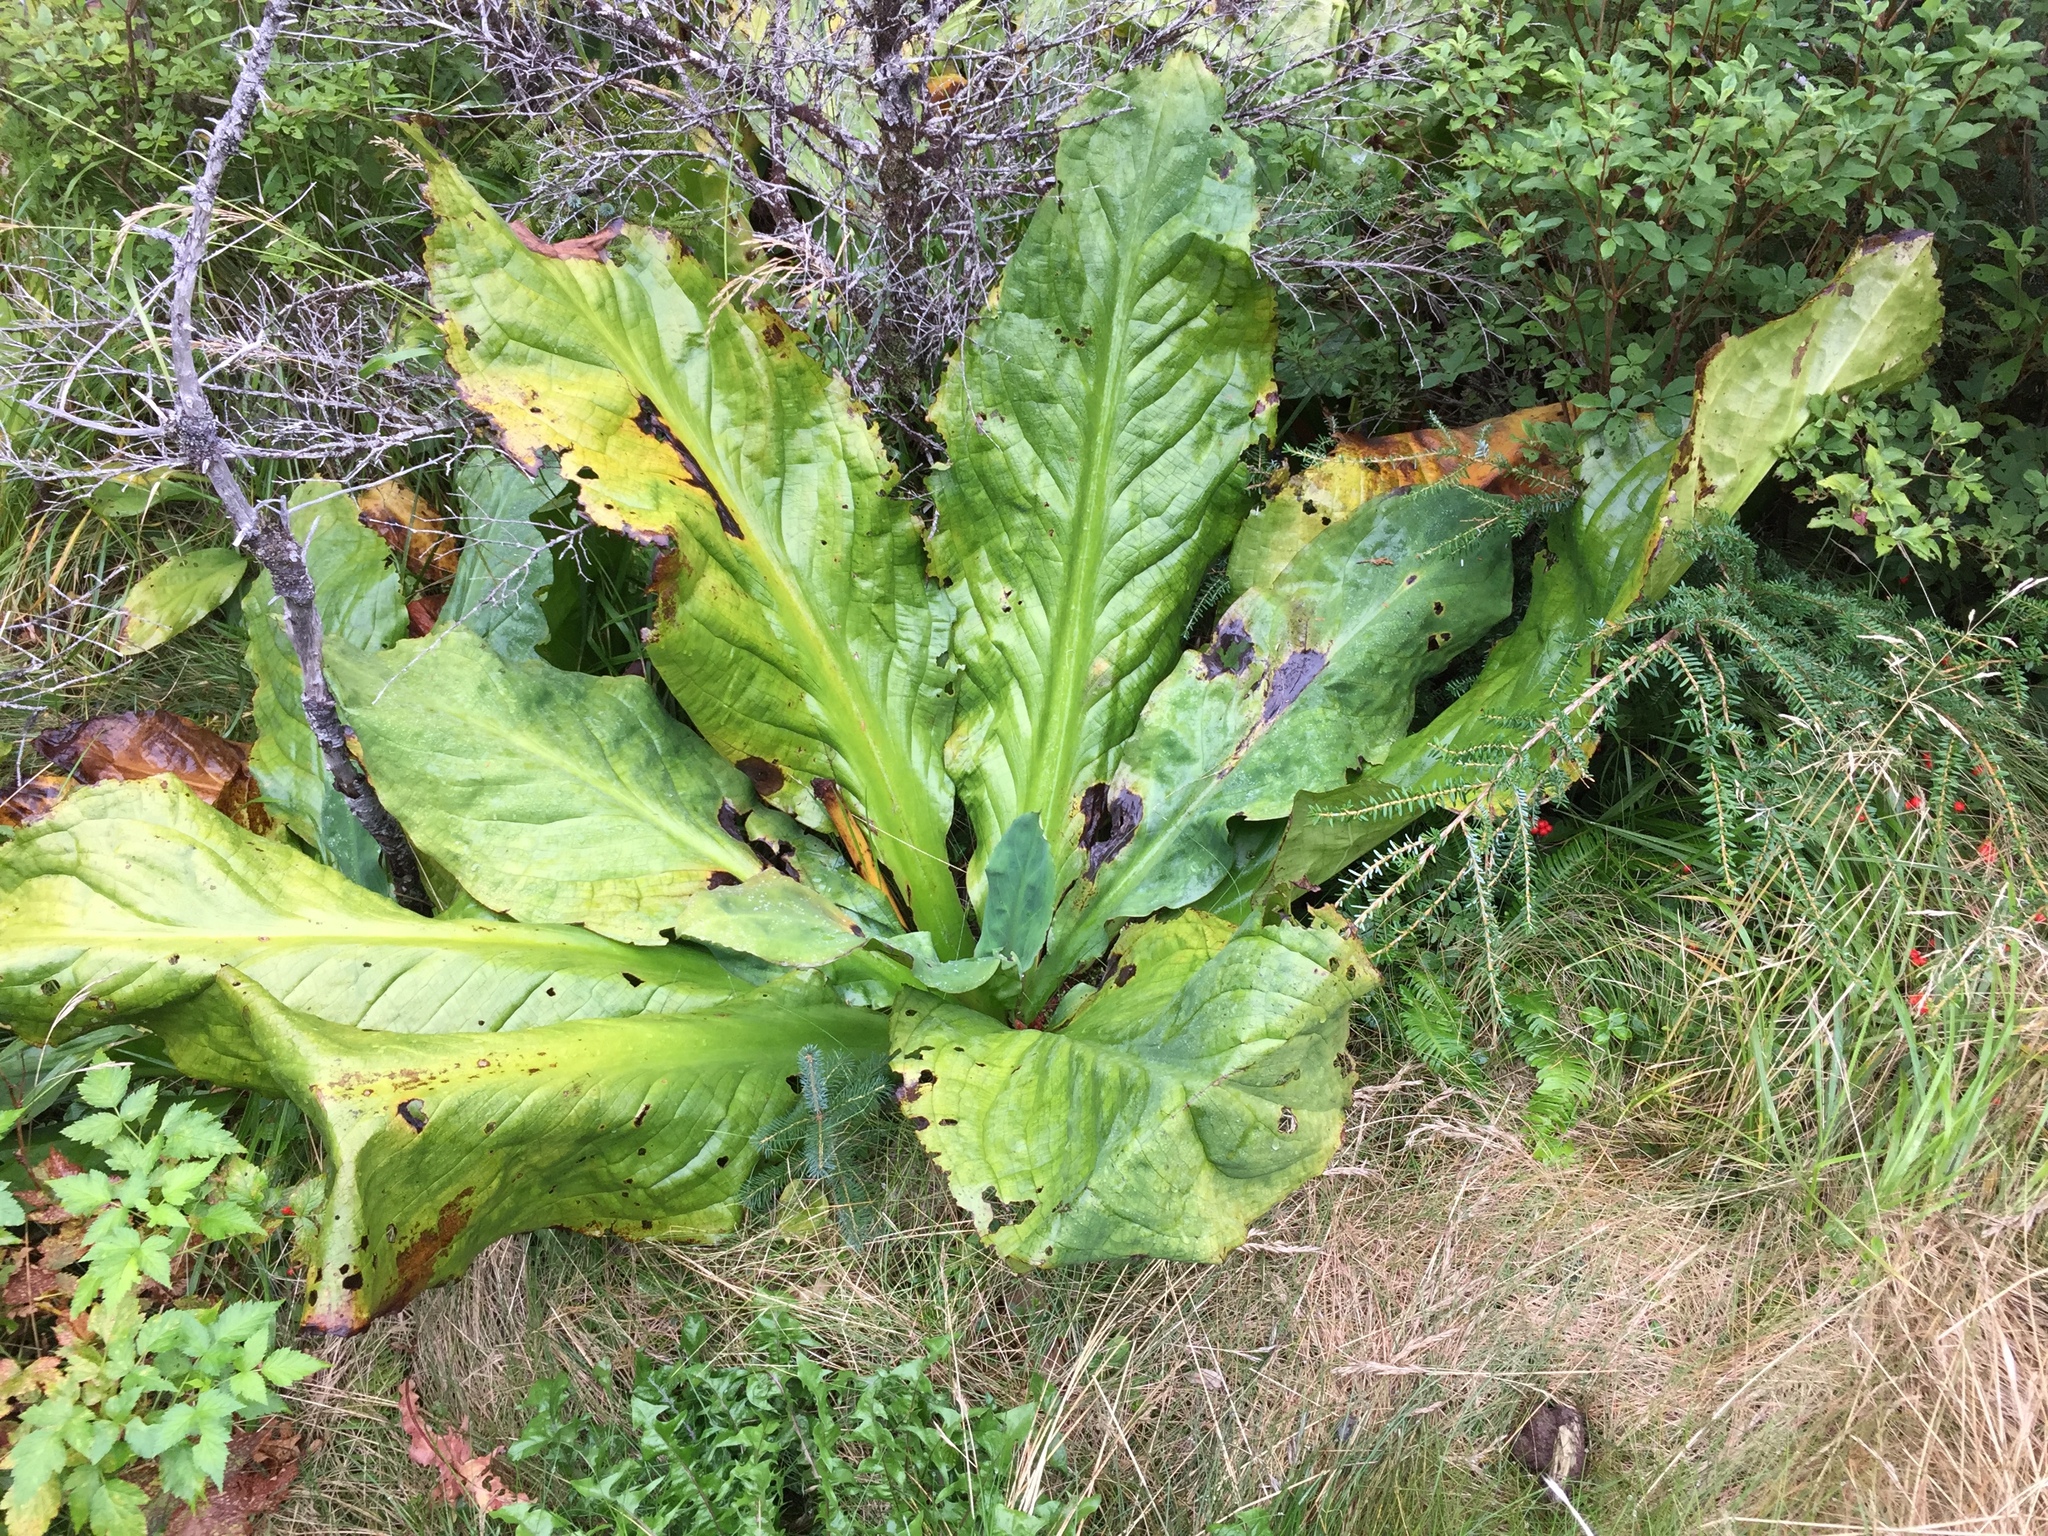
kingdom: Plantae
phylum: Tracheophyta
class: Liliopsida
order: Alismatales
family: Araceae
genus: Lysichiton
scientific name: Lysichiton americanus
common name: American skunk cabbage
